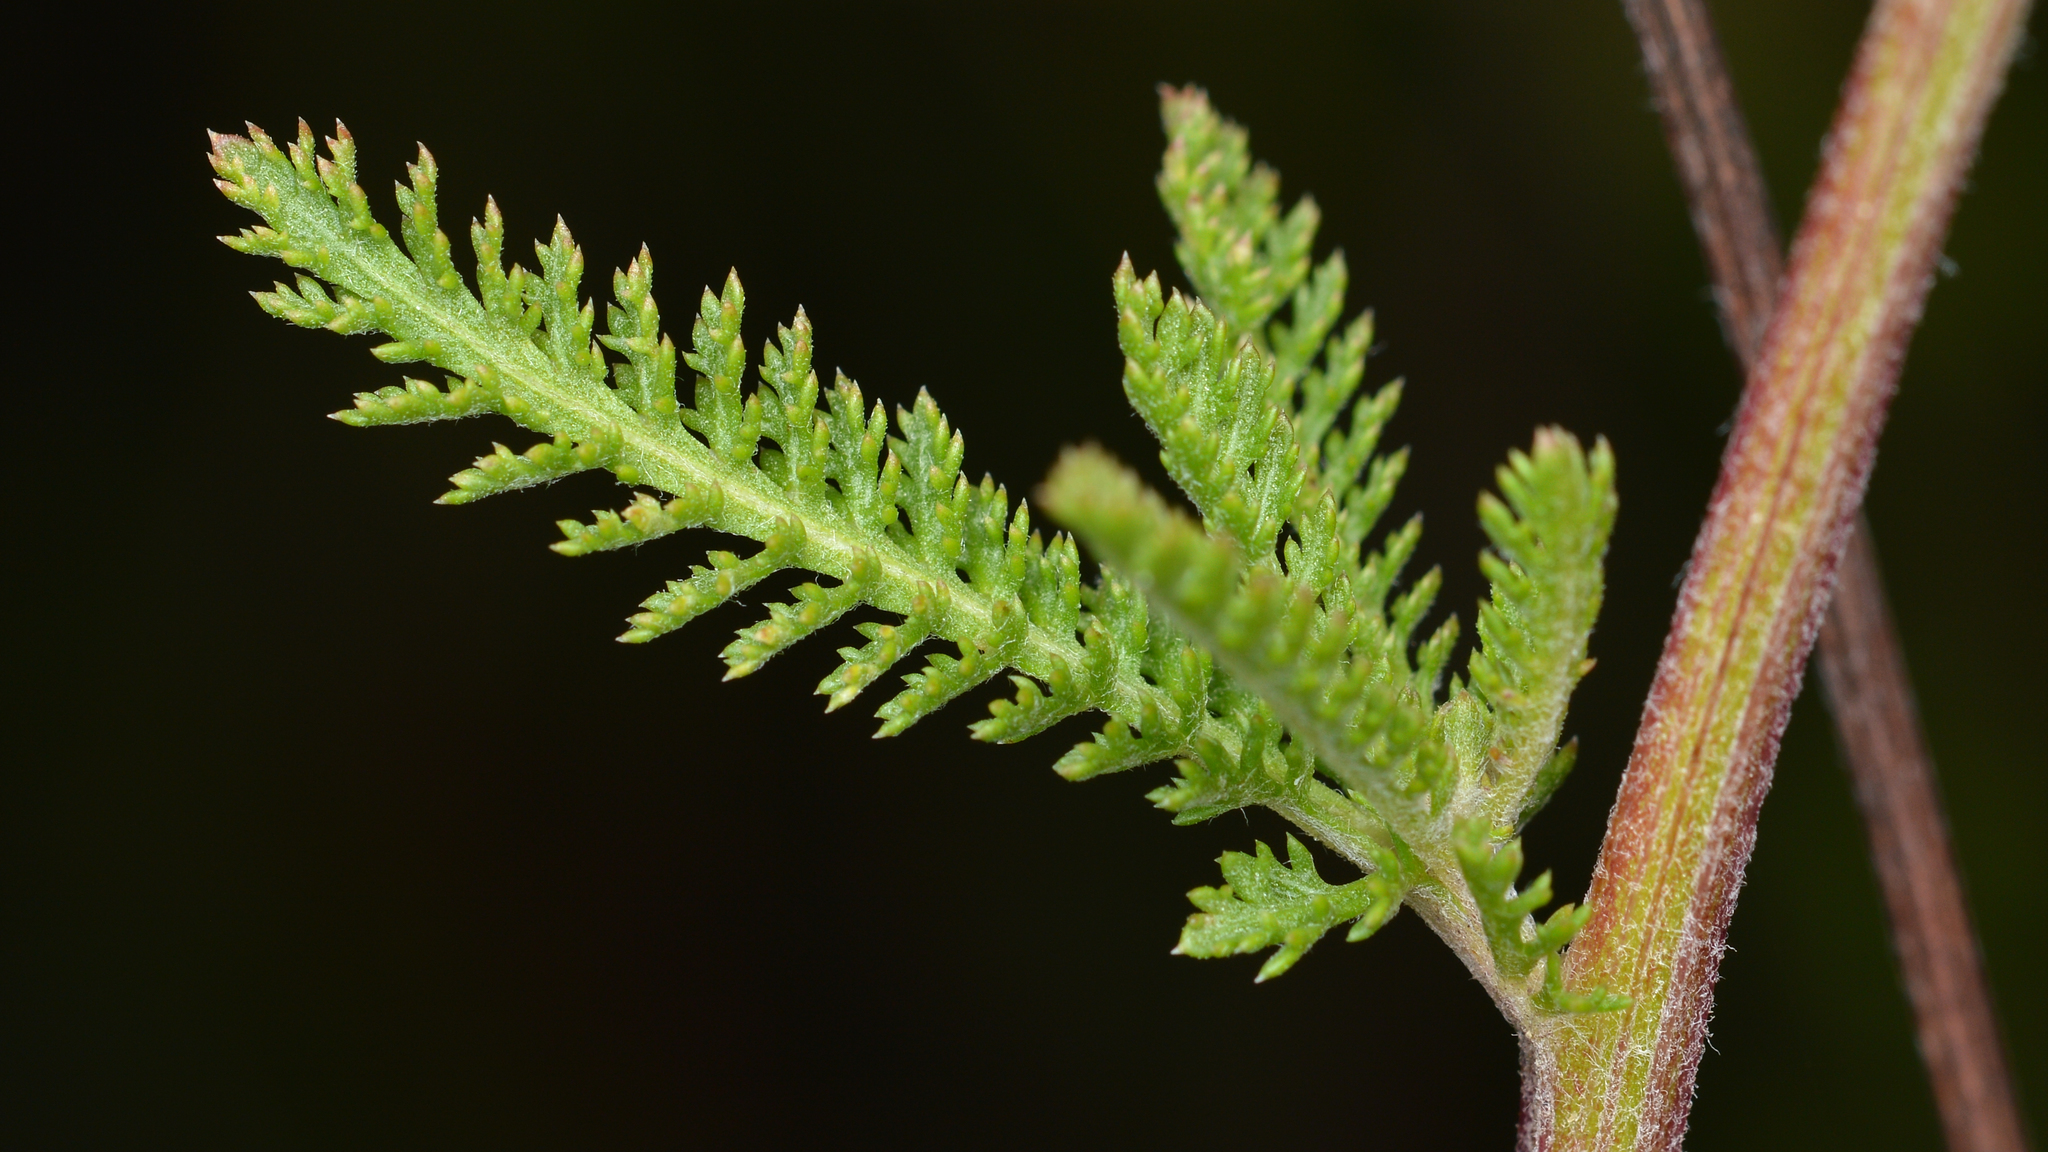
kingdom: Plantae
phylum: Tracheophyta
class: Magnoliopsida
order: Asterales
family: Asteraceae
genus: Achillea
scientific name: Achillea millefolium
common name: Yarrow
